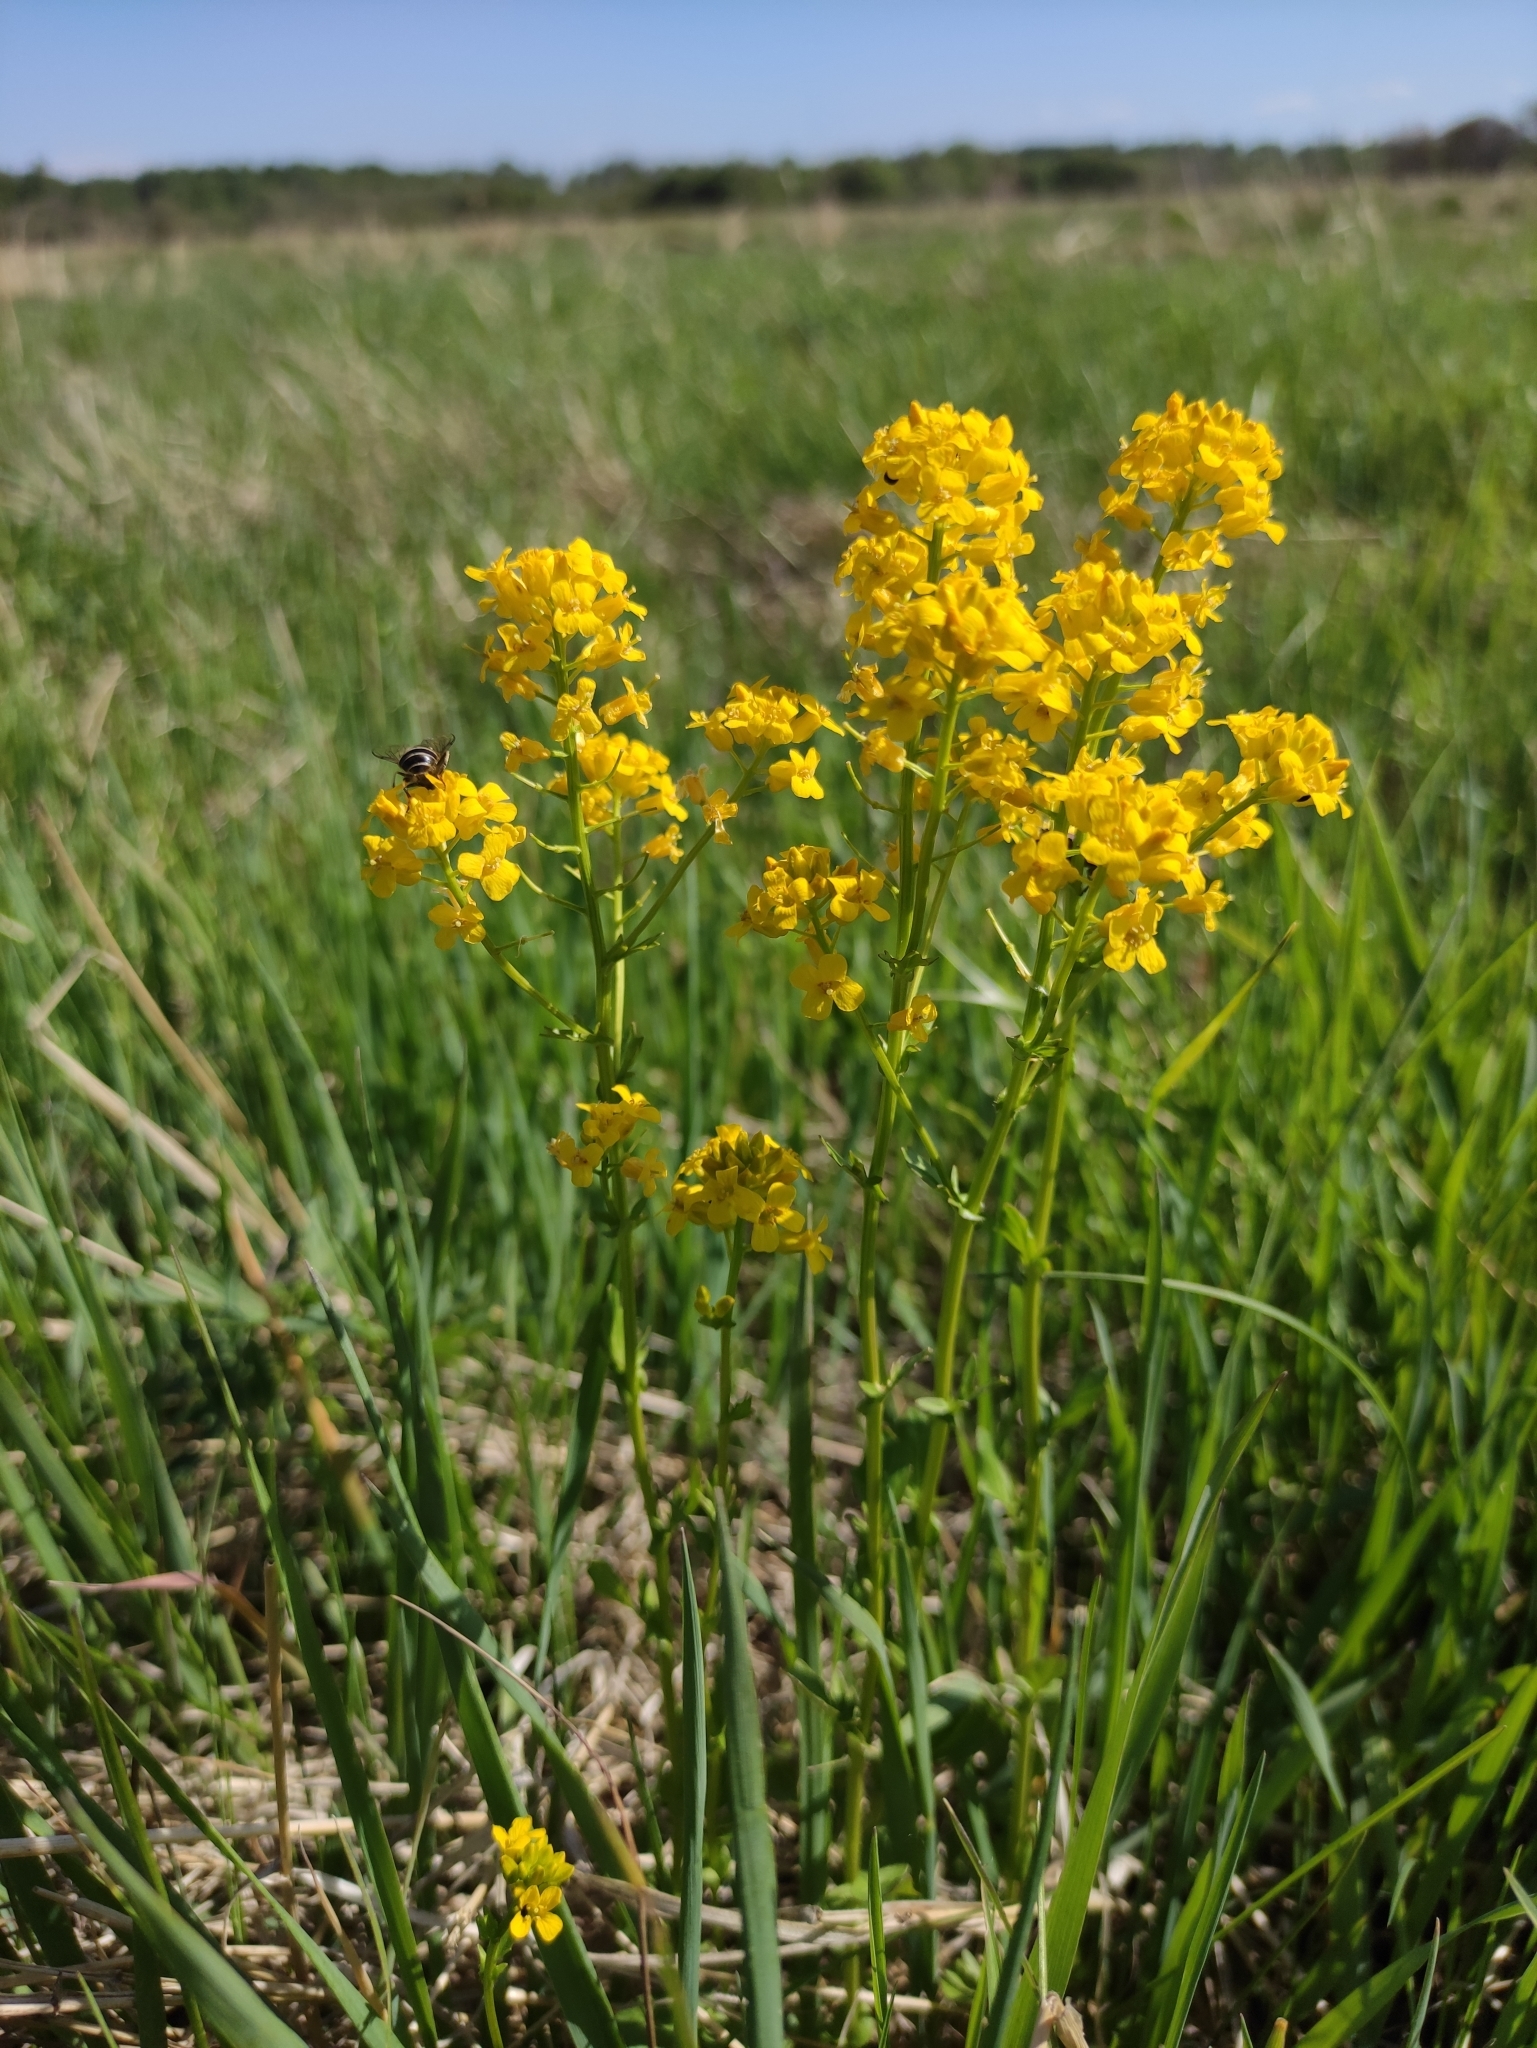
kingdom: Plantae
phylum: Tracheophyta
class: Magnoliopsida
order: Brassicales
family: Brassicaceae
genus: Barbarea
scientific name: Barbarea vulgaris
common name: Cressy-greens
